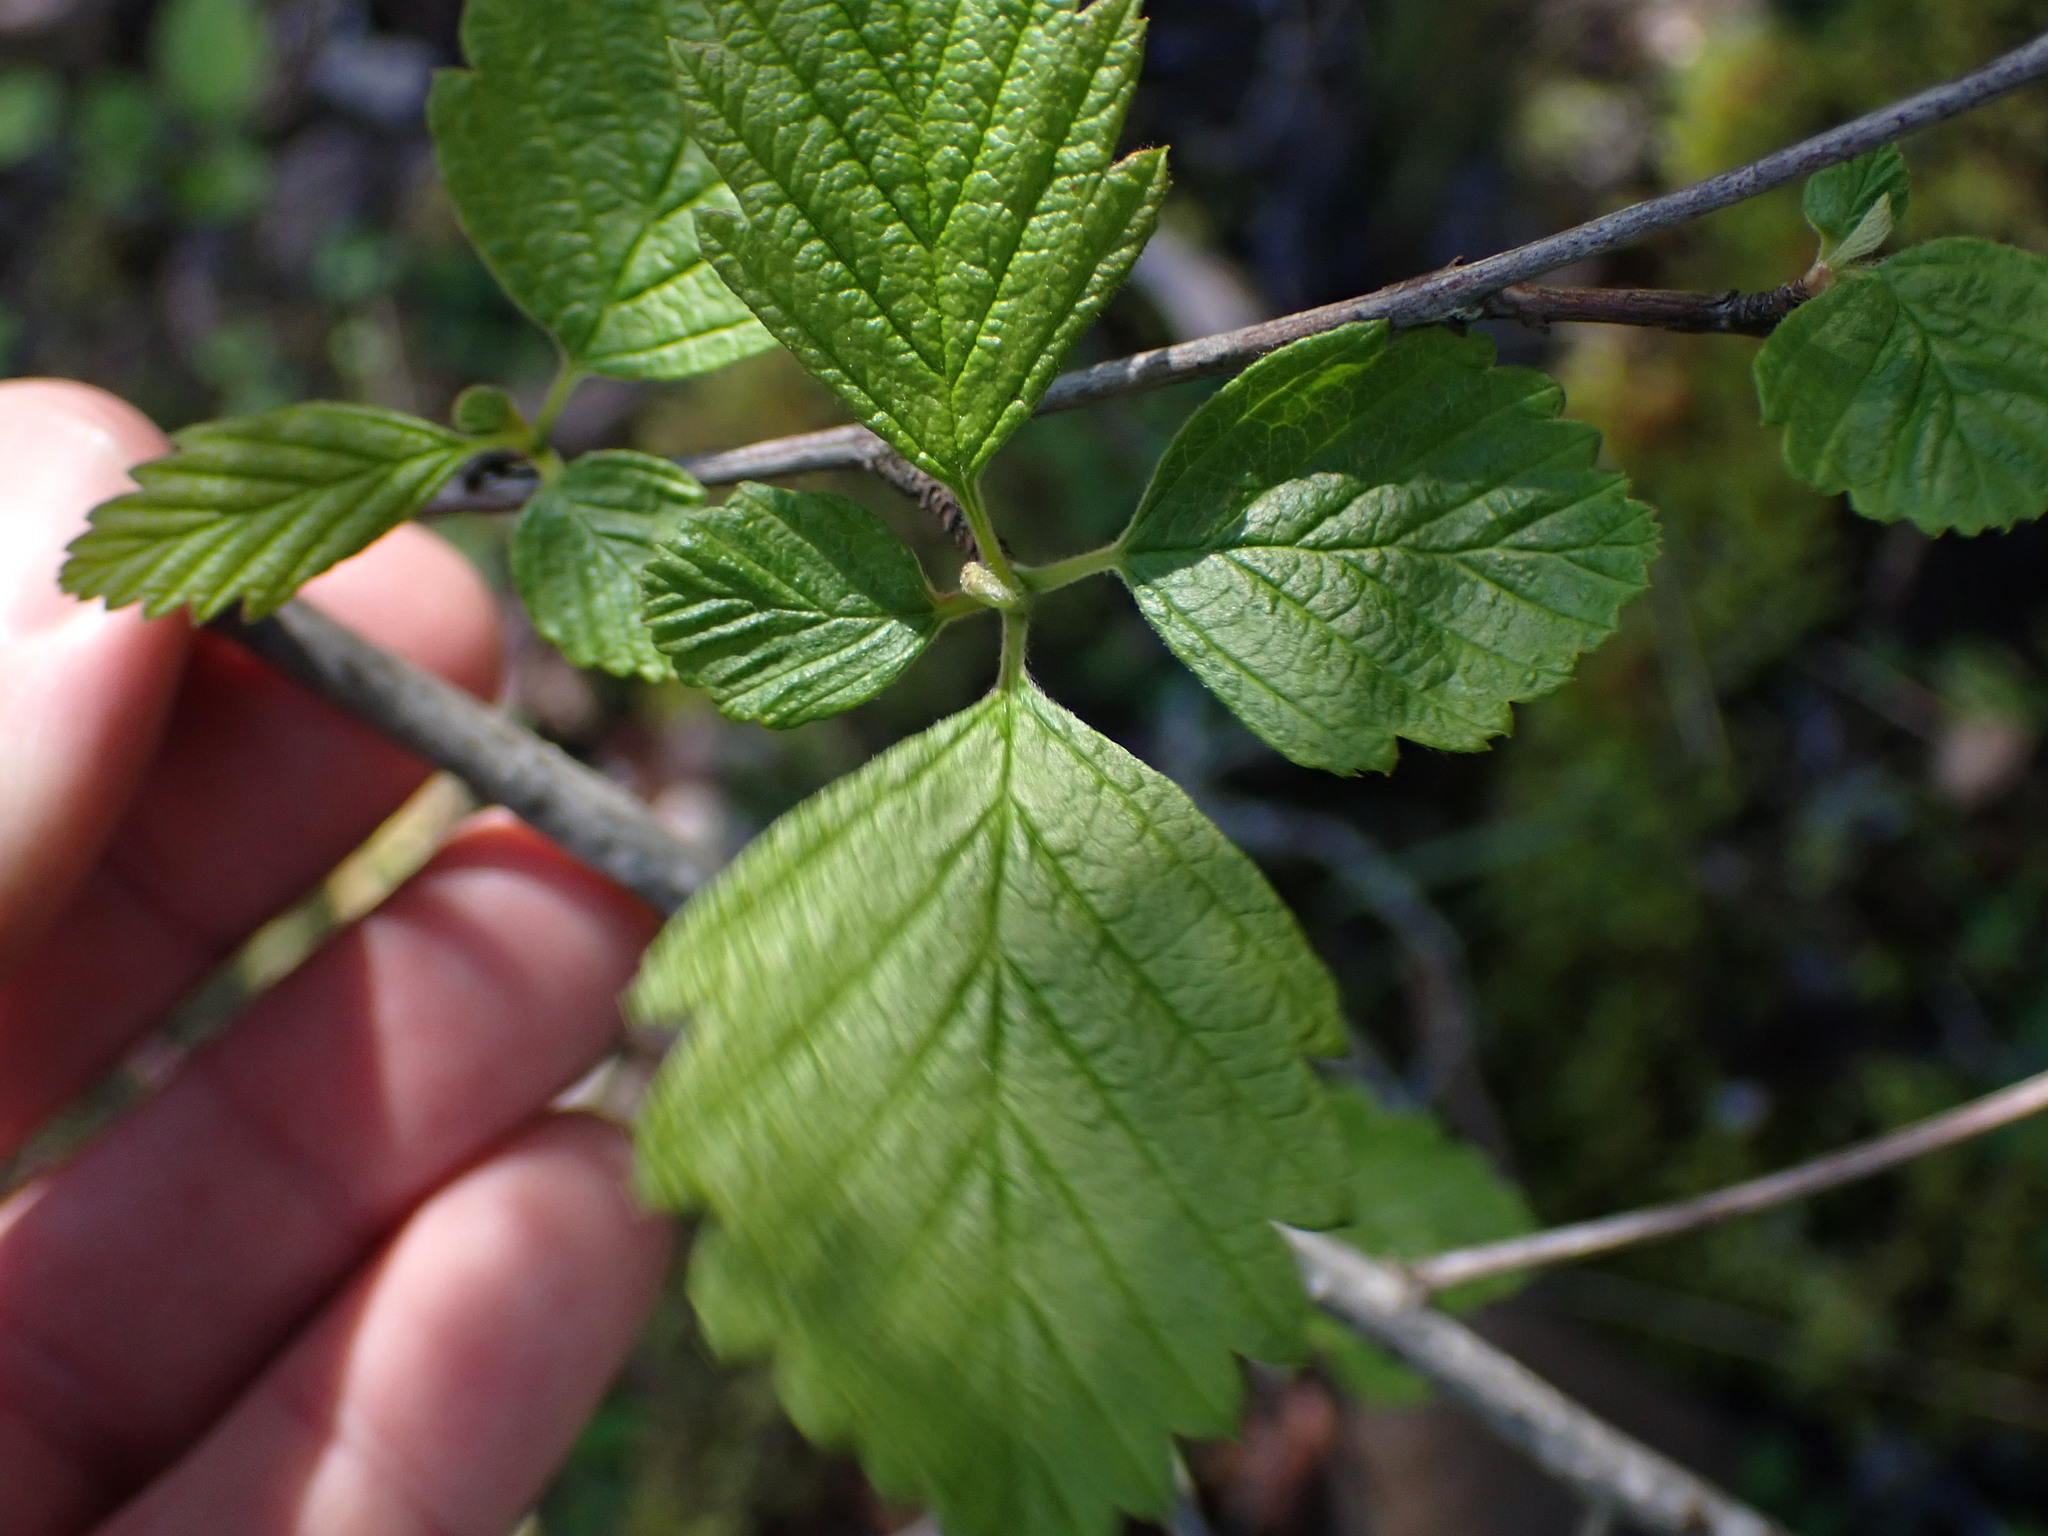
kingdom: Plantae
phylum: Tracheophyta
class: Magnoliopsida
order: Rosales
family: Rosaceae
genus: Holodiscus
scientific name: Holodiscus discolor
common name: Oceanspray
